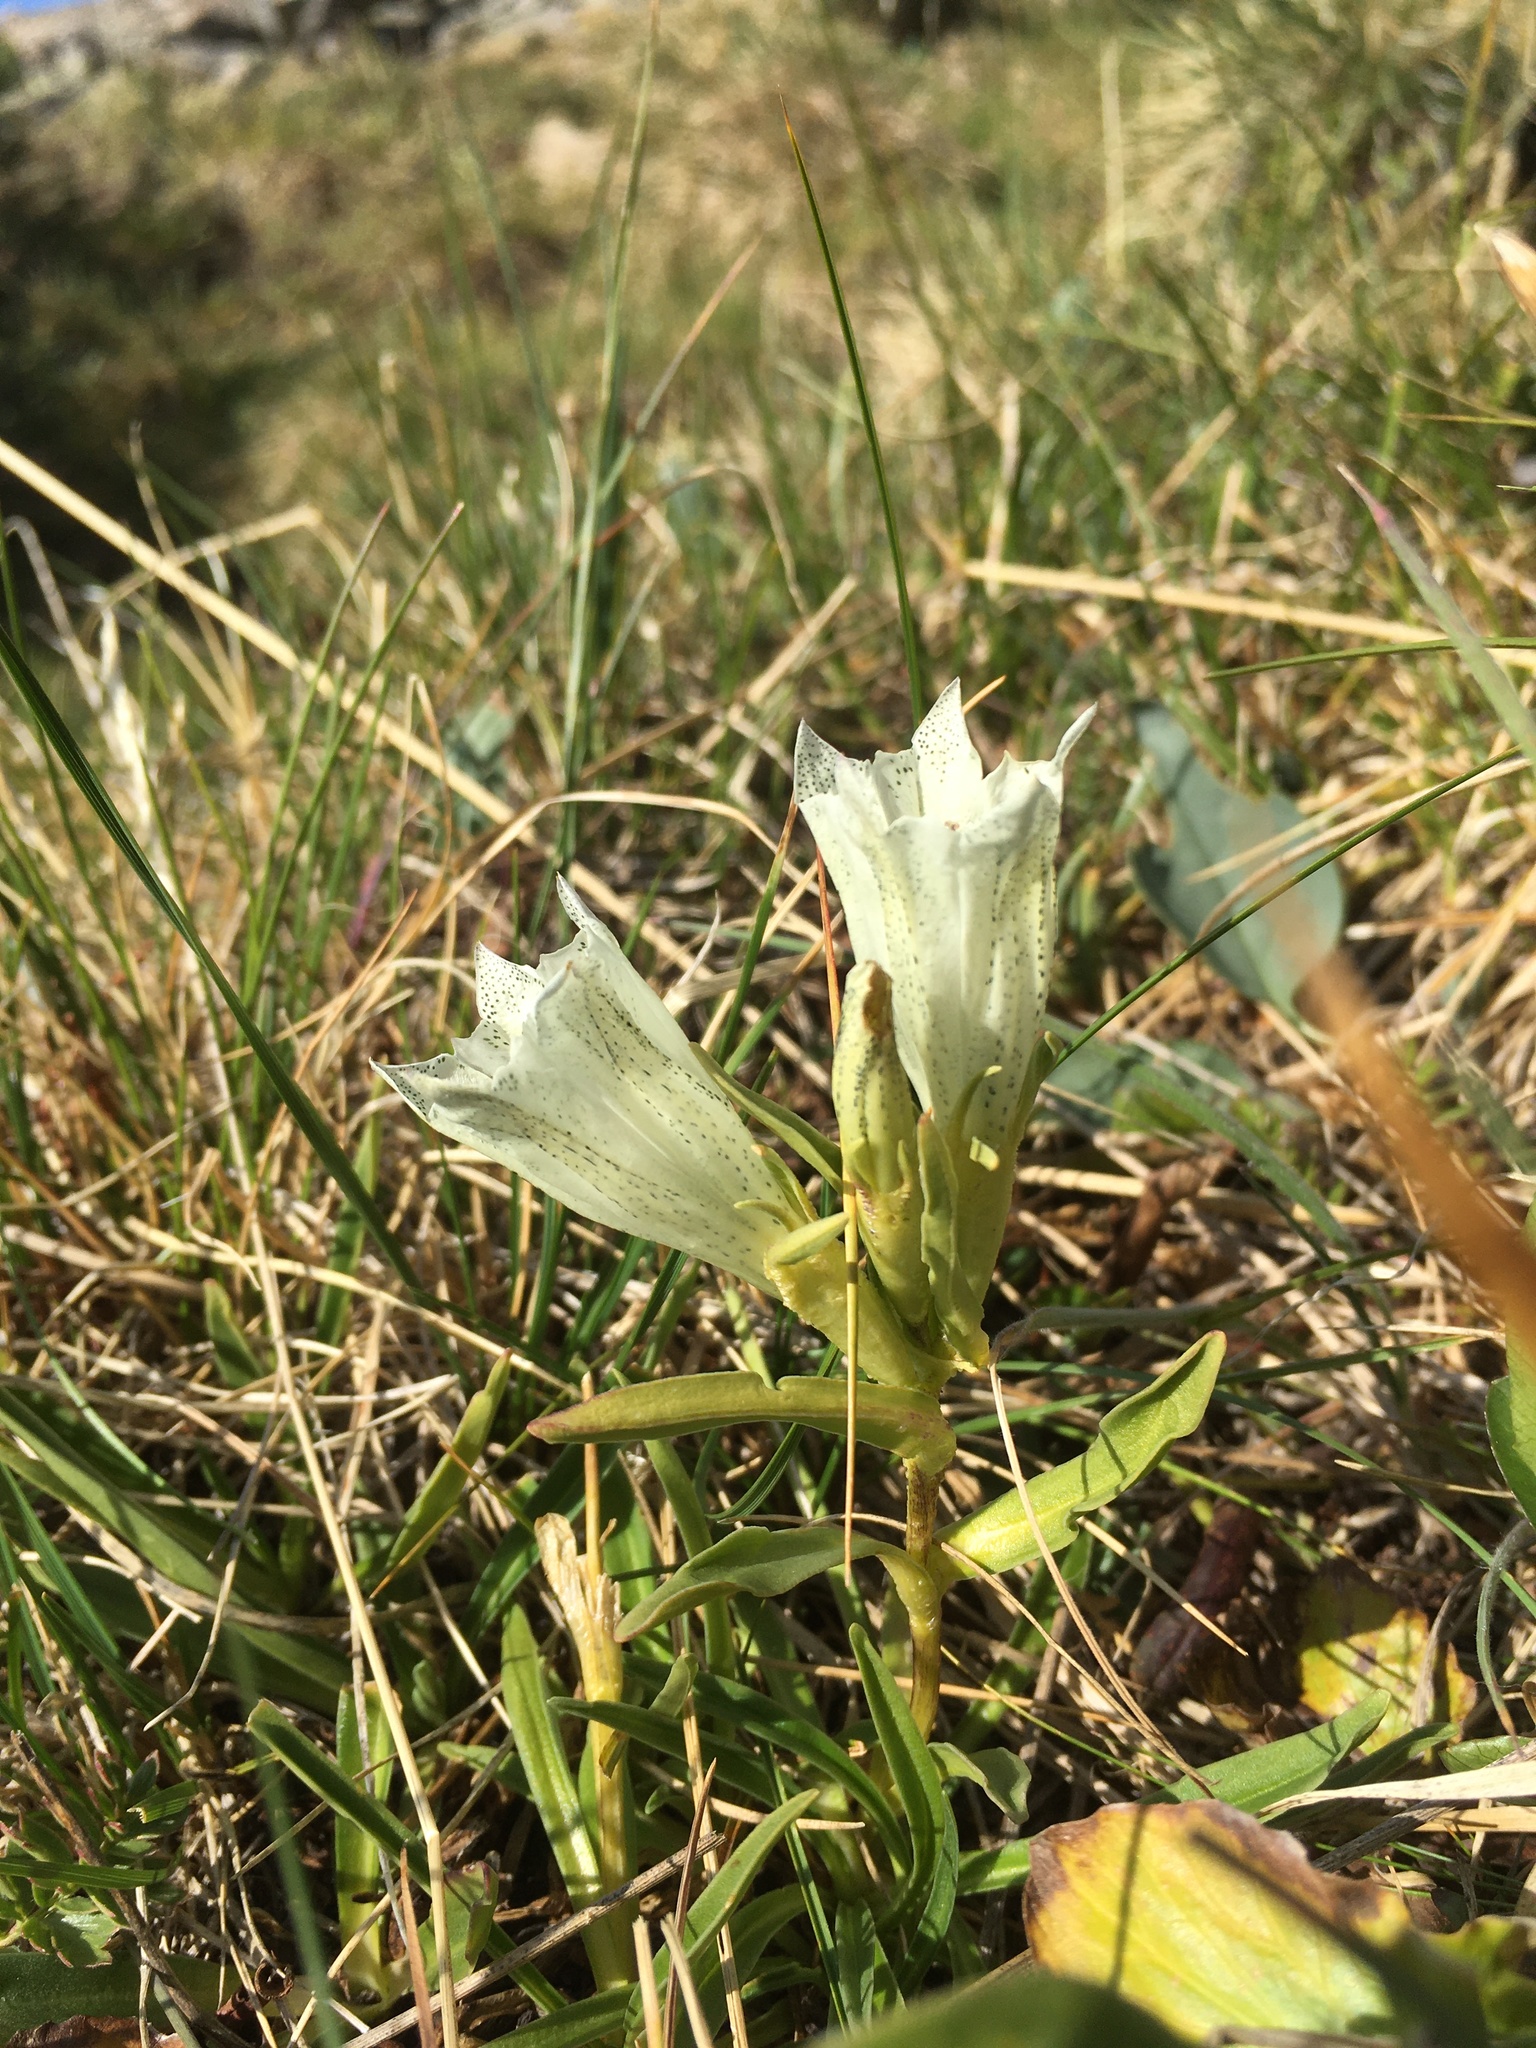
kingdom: Plantae
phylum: Tracheophyta
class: Magnoliopsida
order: Gentianales
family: Gentianaceae
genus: Gentiana
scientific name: Gentiana algida
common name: Arctic gentian
